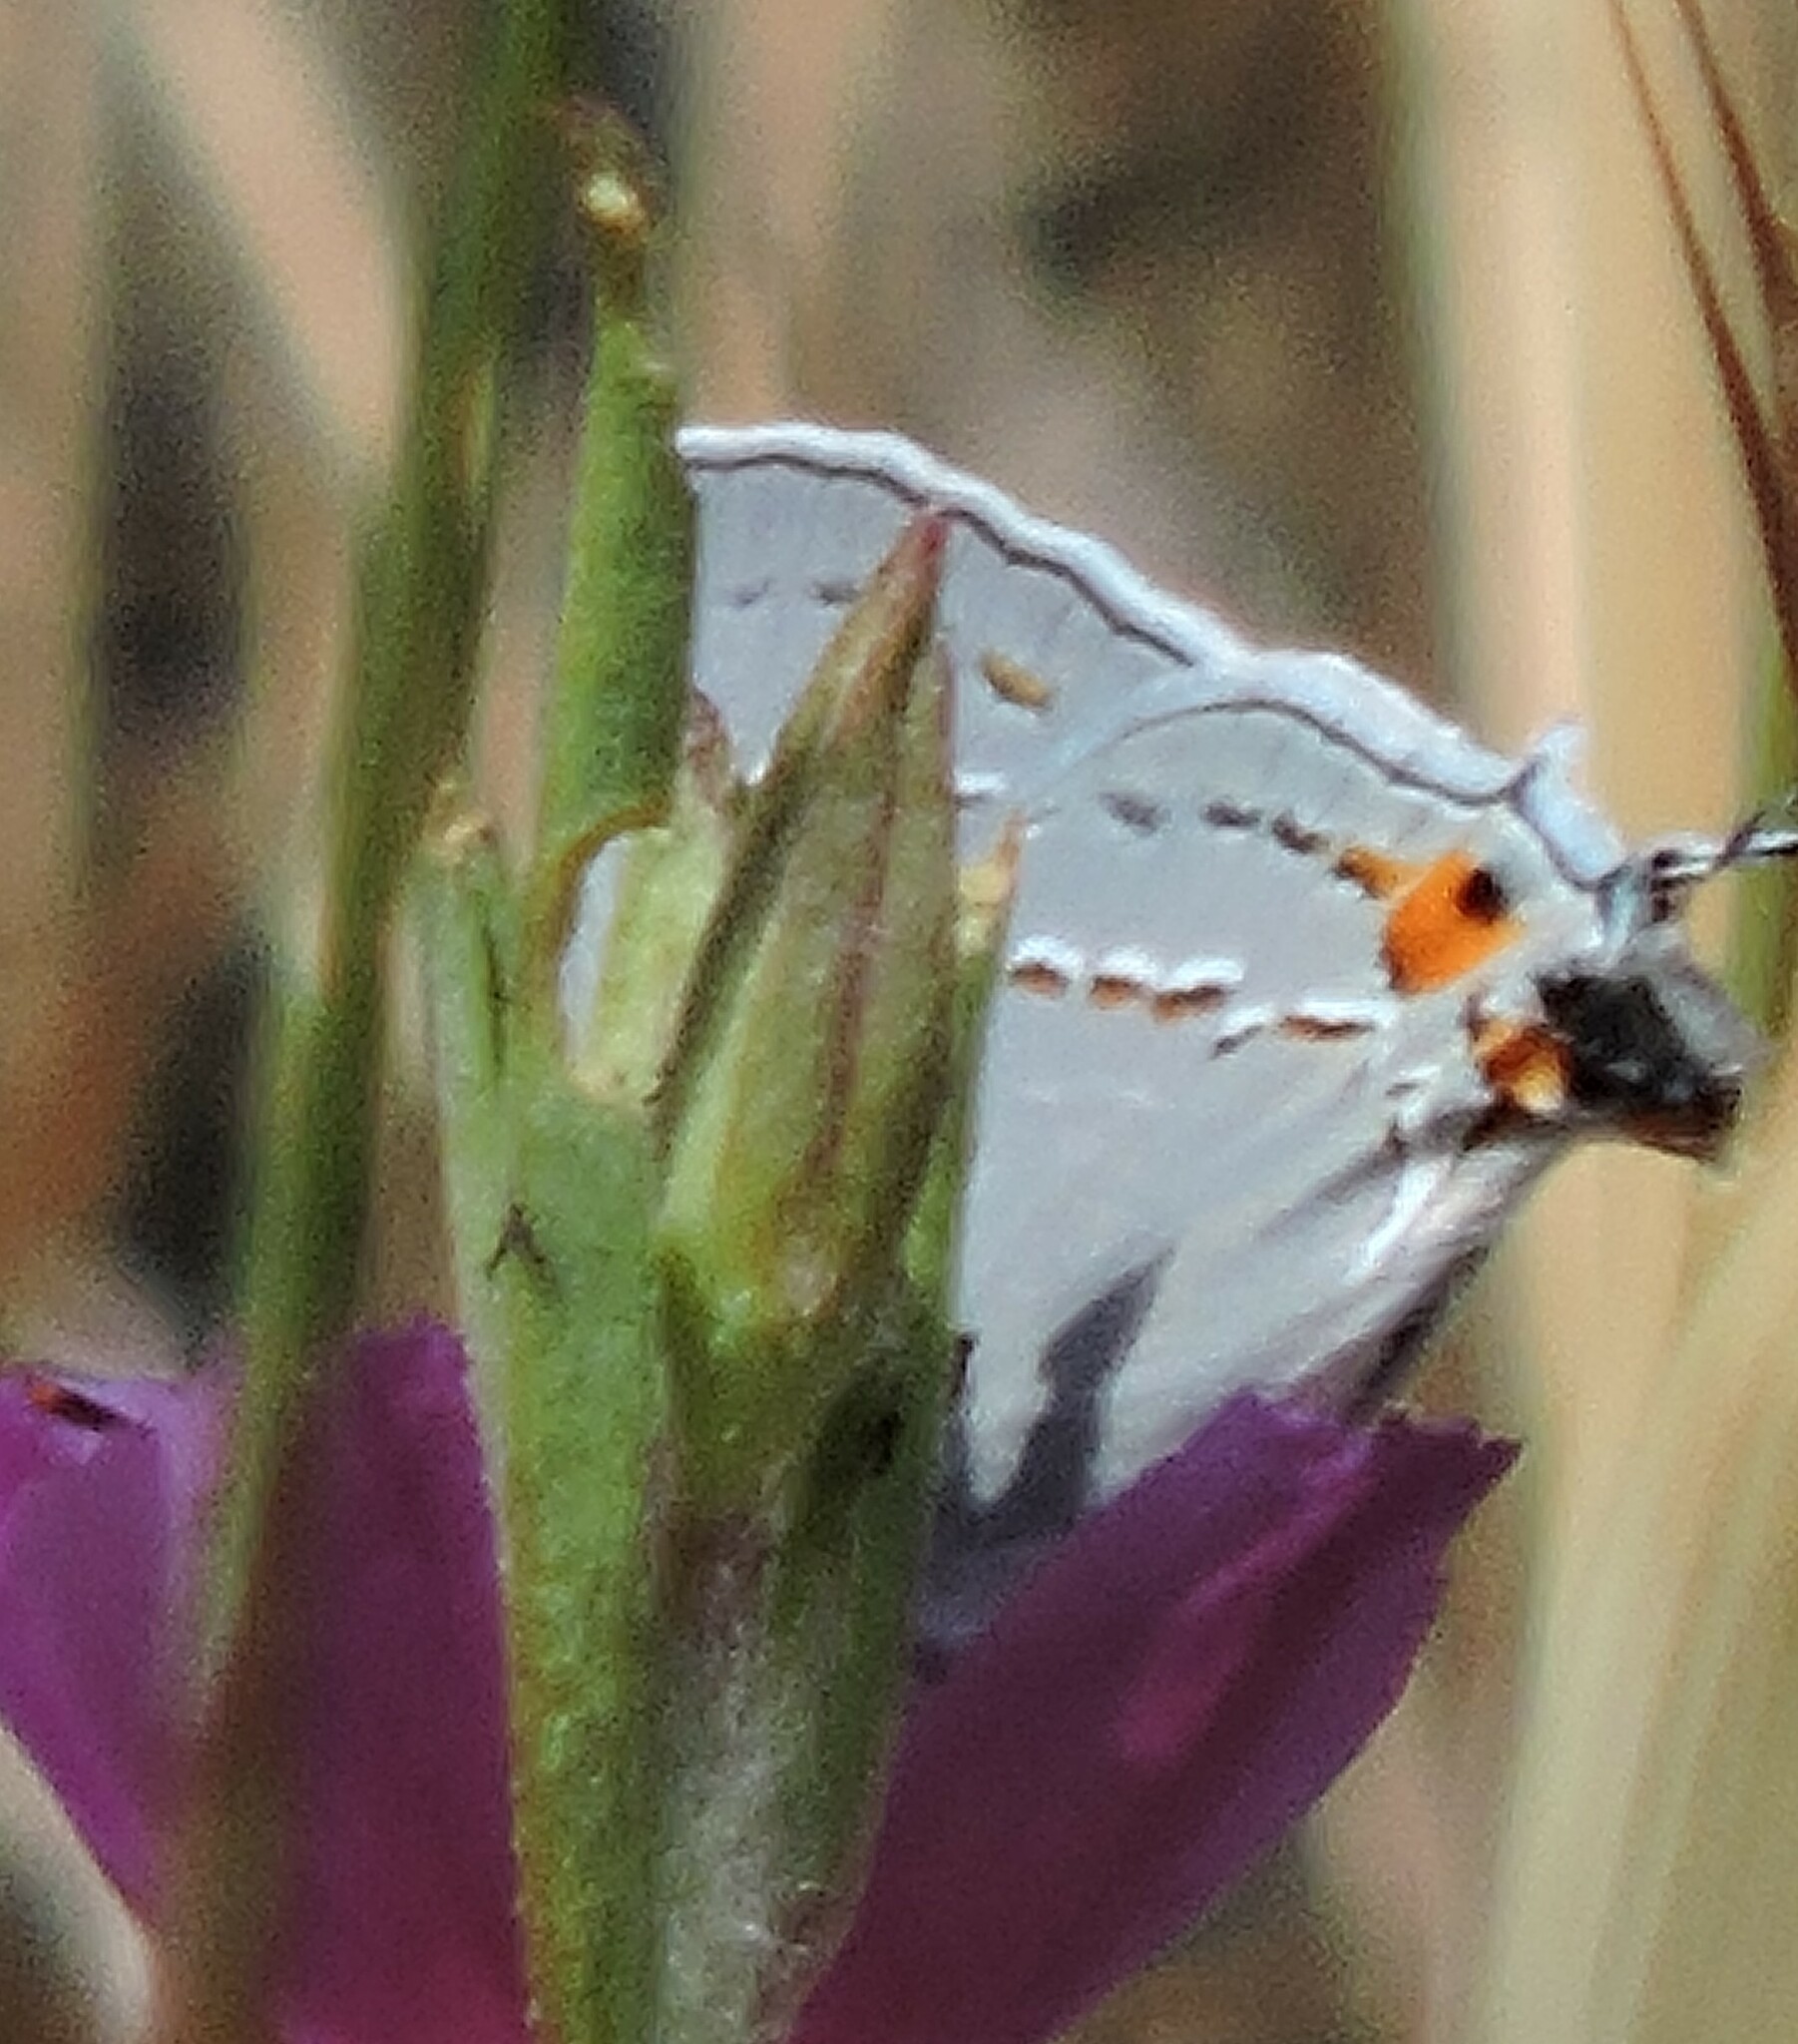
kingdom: Animalia
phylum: Arthropoda
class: Insecta
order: Lepidoptera
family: Lycaenidae
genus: Strymon
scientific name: Strymon melinus
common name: Gray hairstreak
